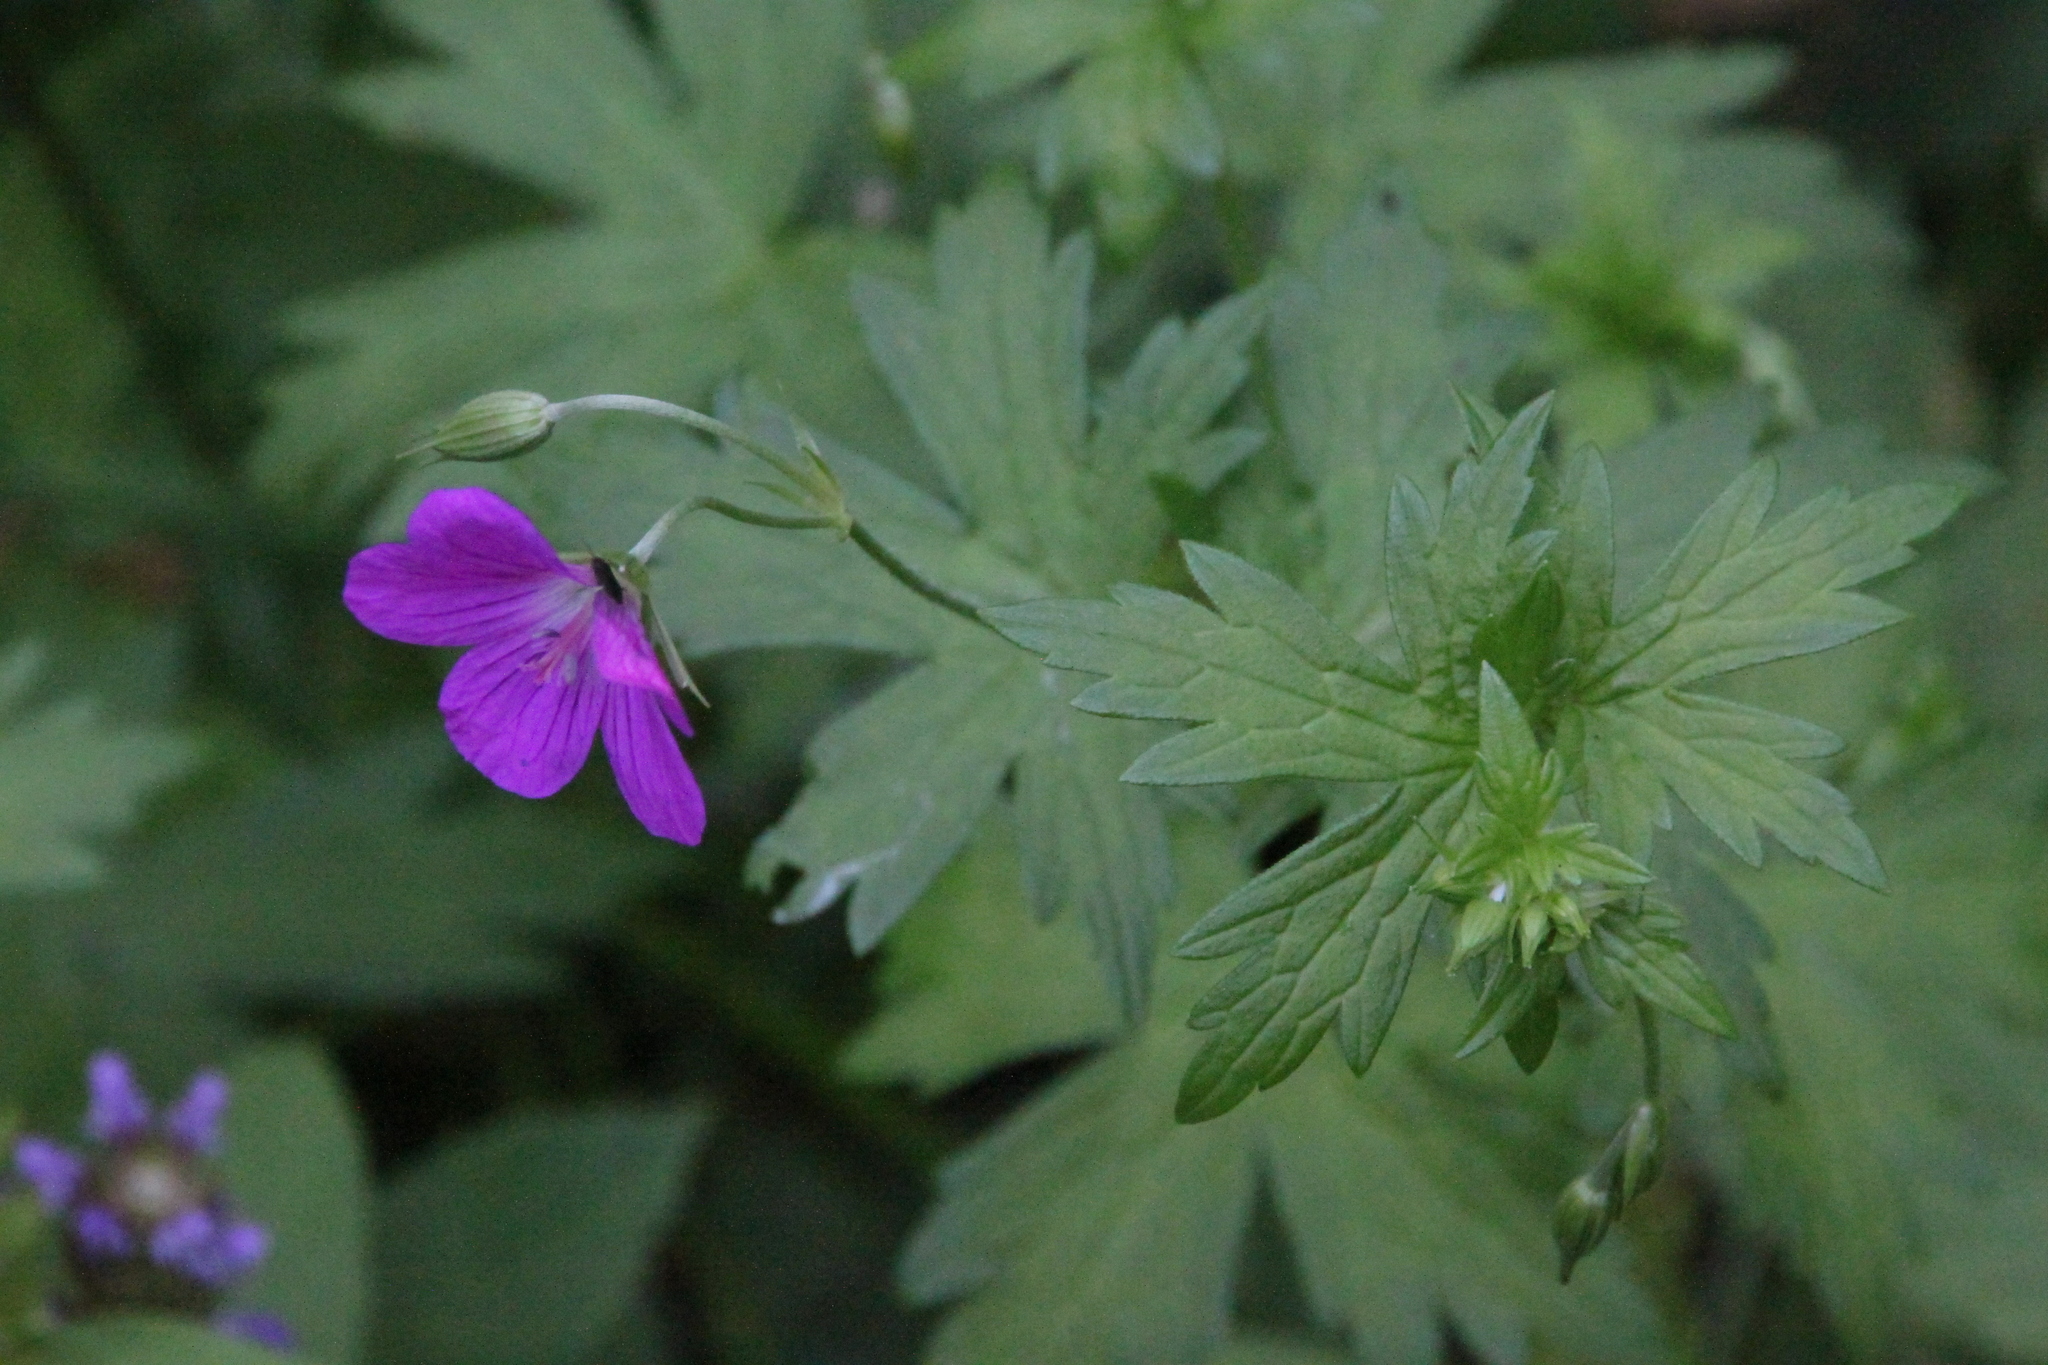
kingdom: Plantae
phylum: Tracheophyta
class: Magnoliopsida
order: Geraniales
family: Geraniaceae
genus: Geranium
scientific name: Geranium palustre
